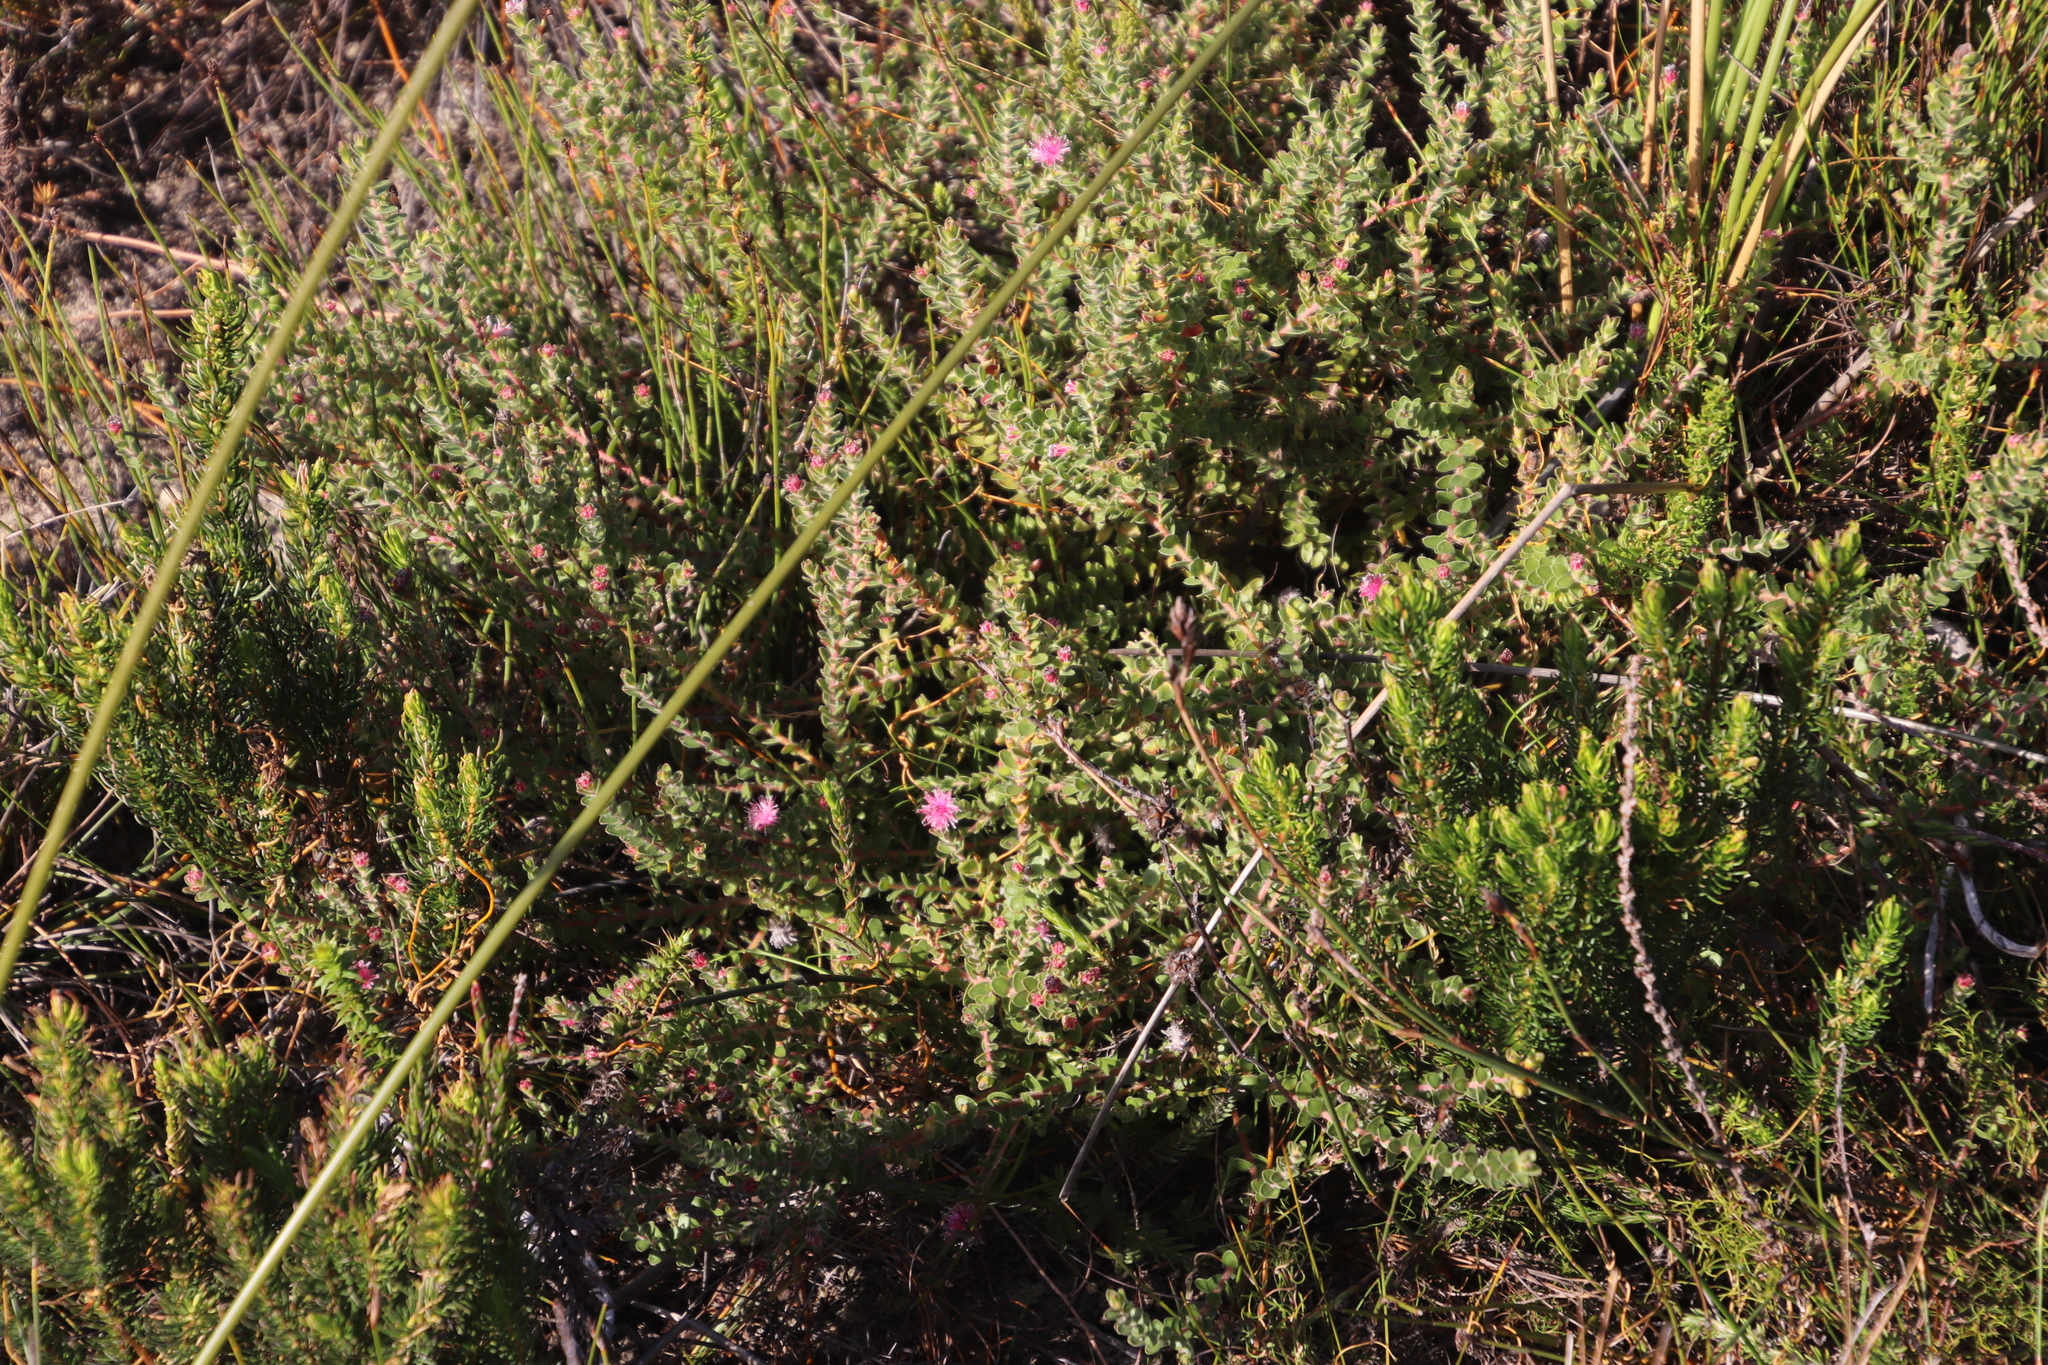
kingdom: Plantae
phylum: Tracheophyta
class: Magnoliopsida
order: Proteales
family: Proteaceae
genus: Diastella
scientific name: Diastella divaricata
